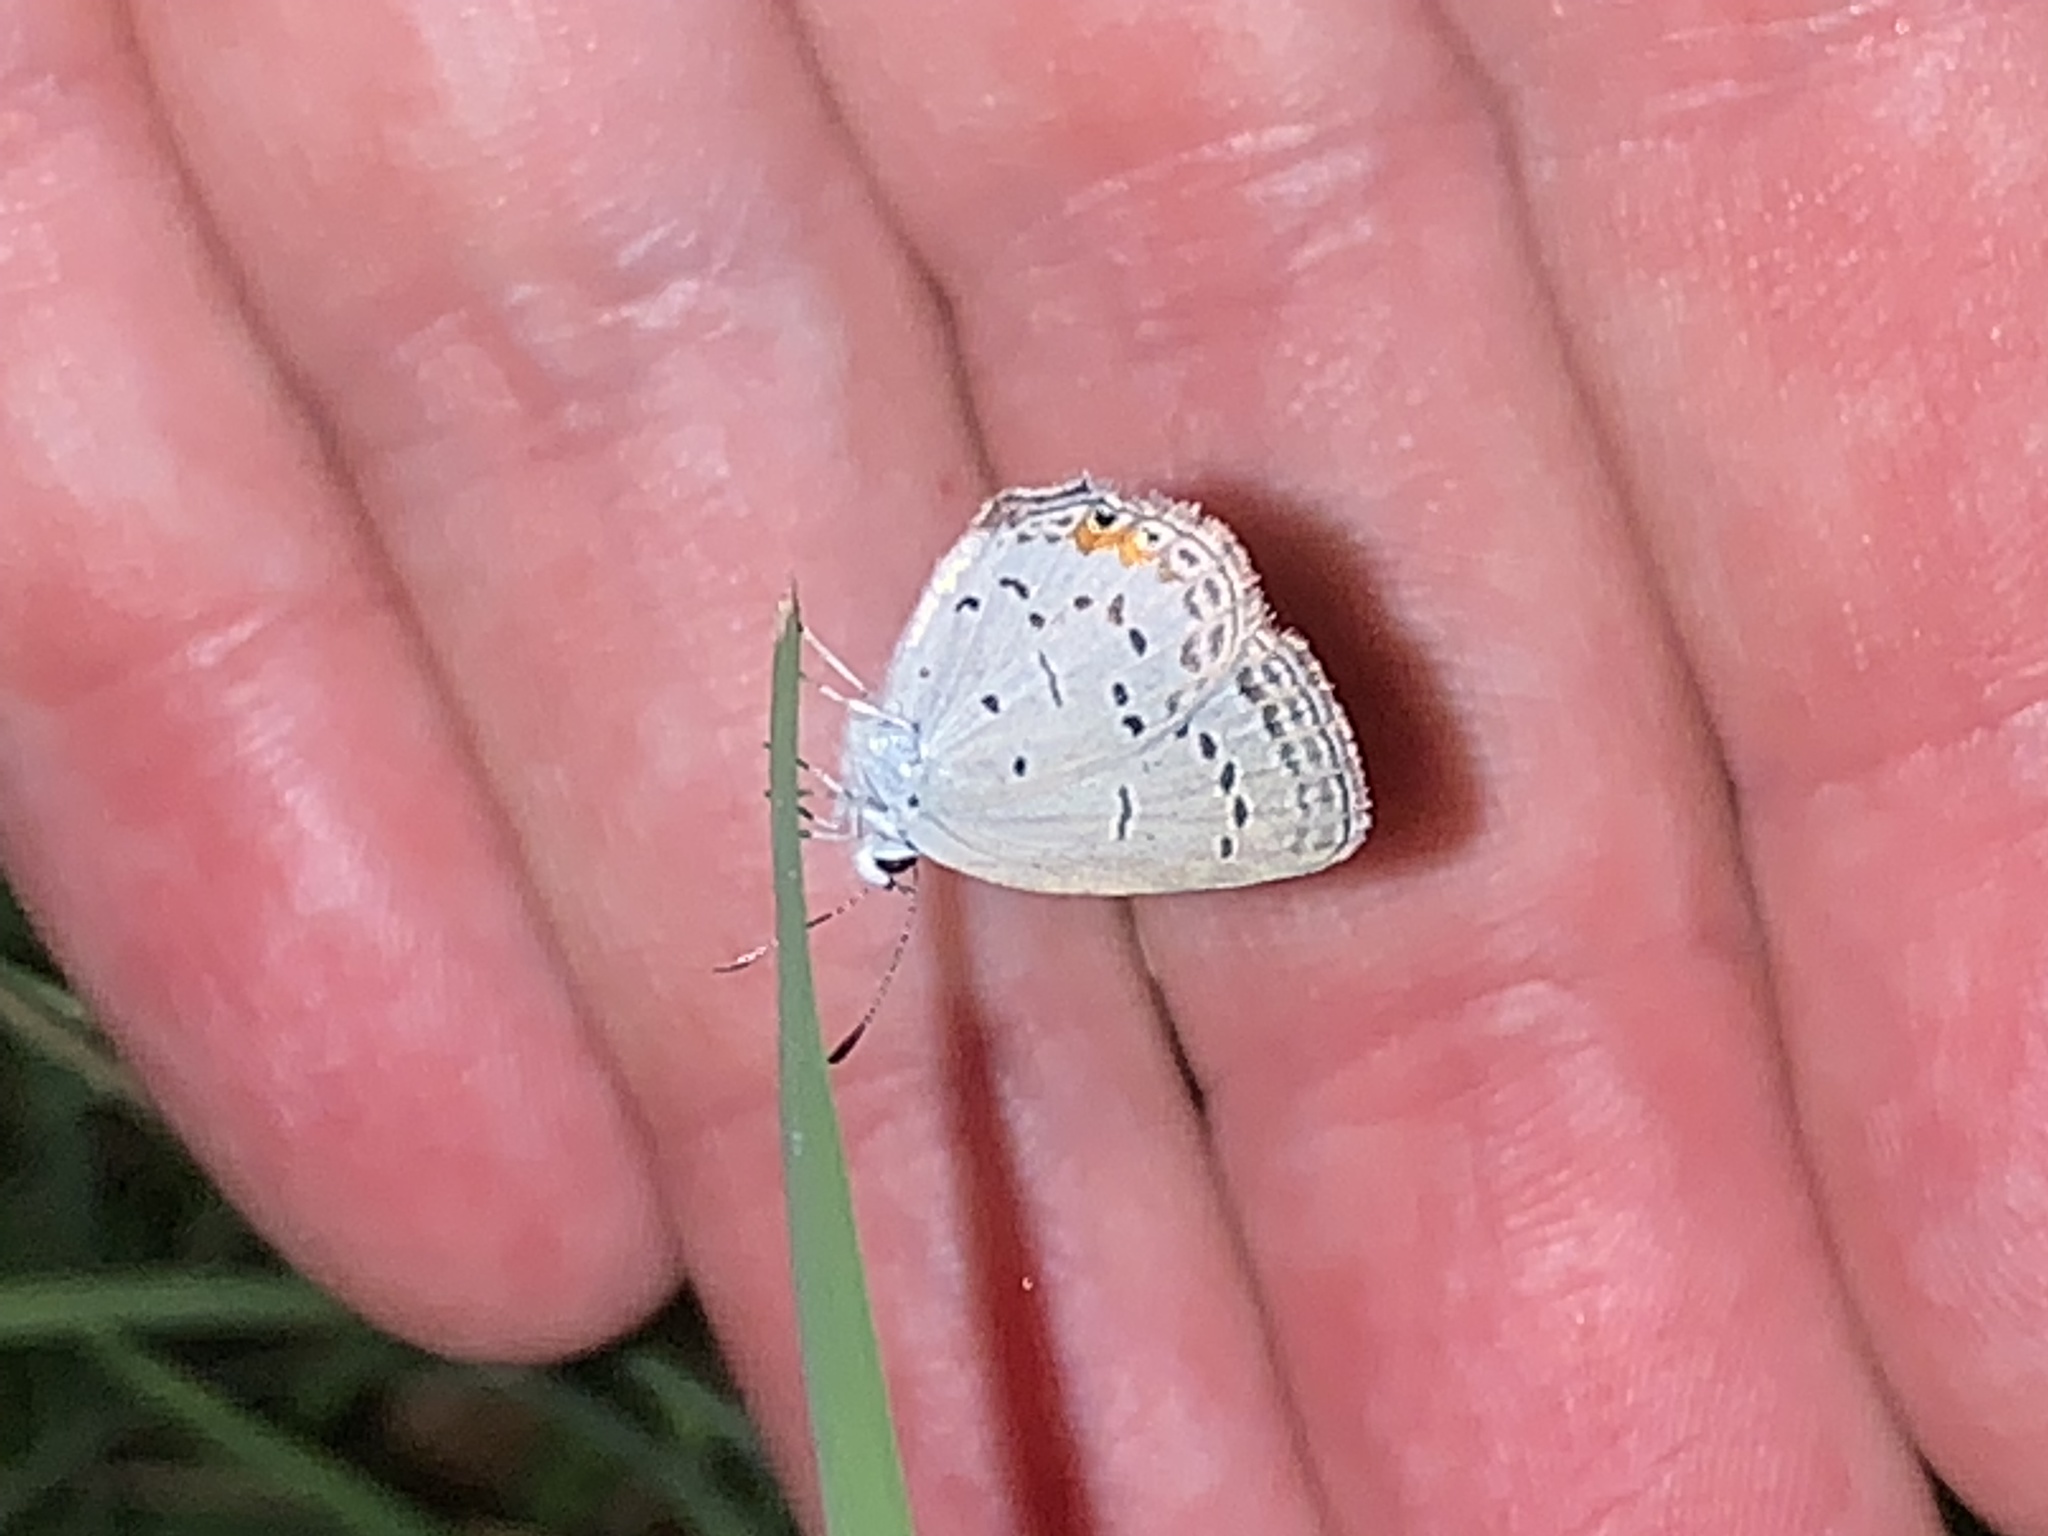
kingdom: Animalia
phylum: Arthropoda
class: Insecta
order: Lepidoptera
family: Lycaenidae
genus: Elkalyce
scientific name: Elkalyce comyntas
